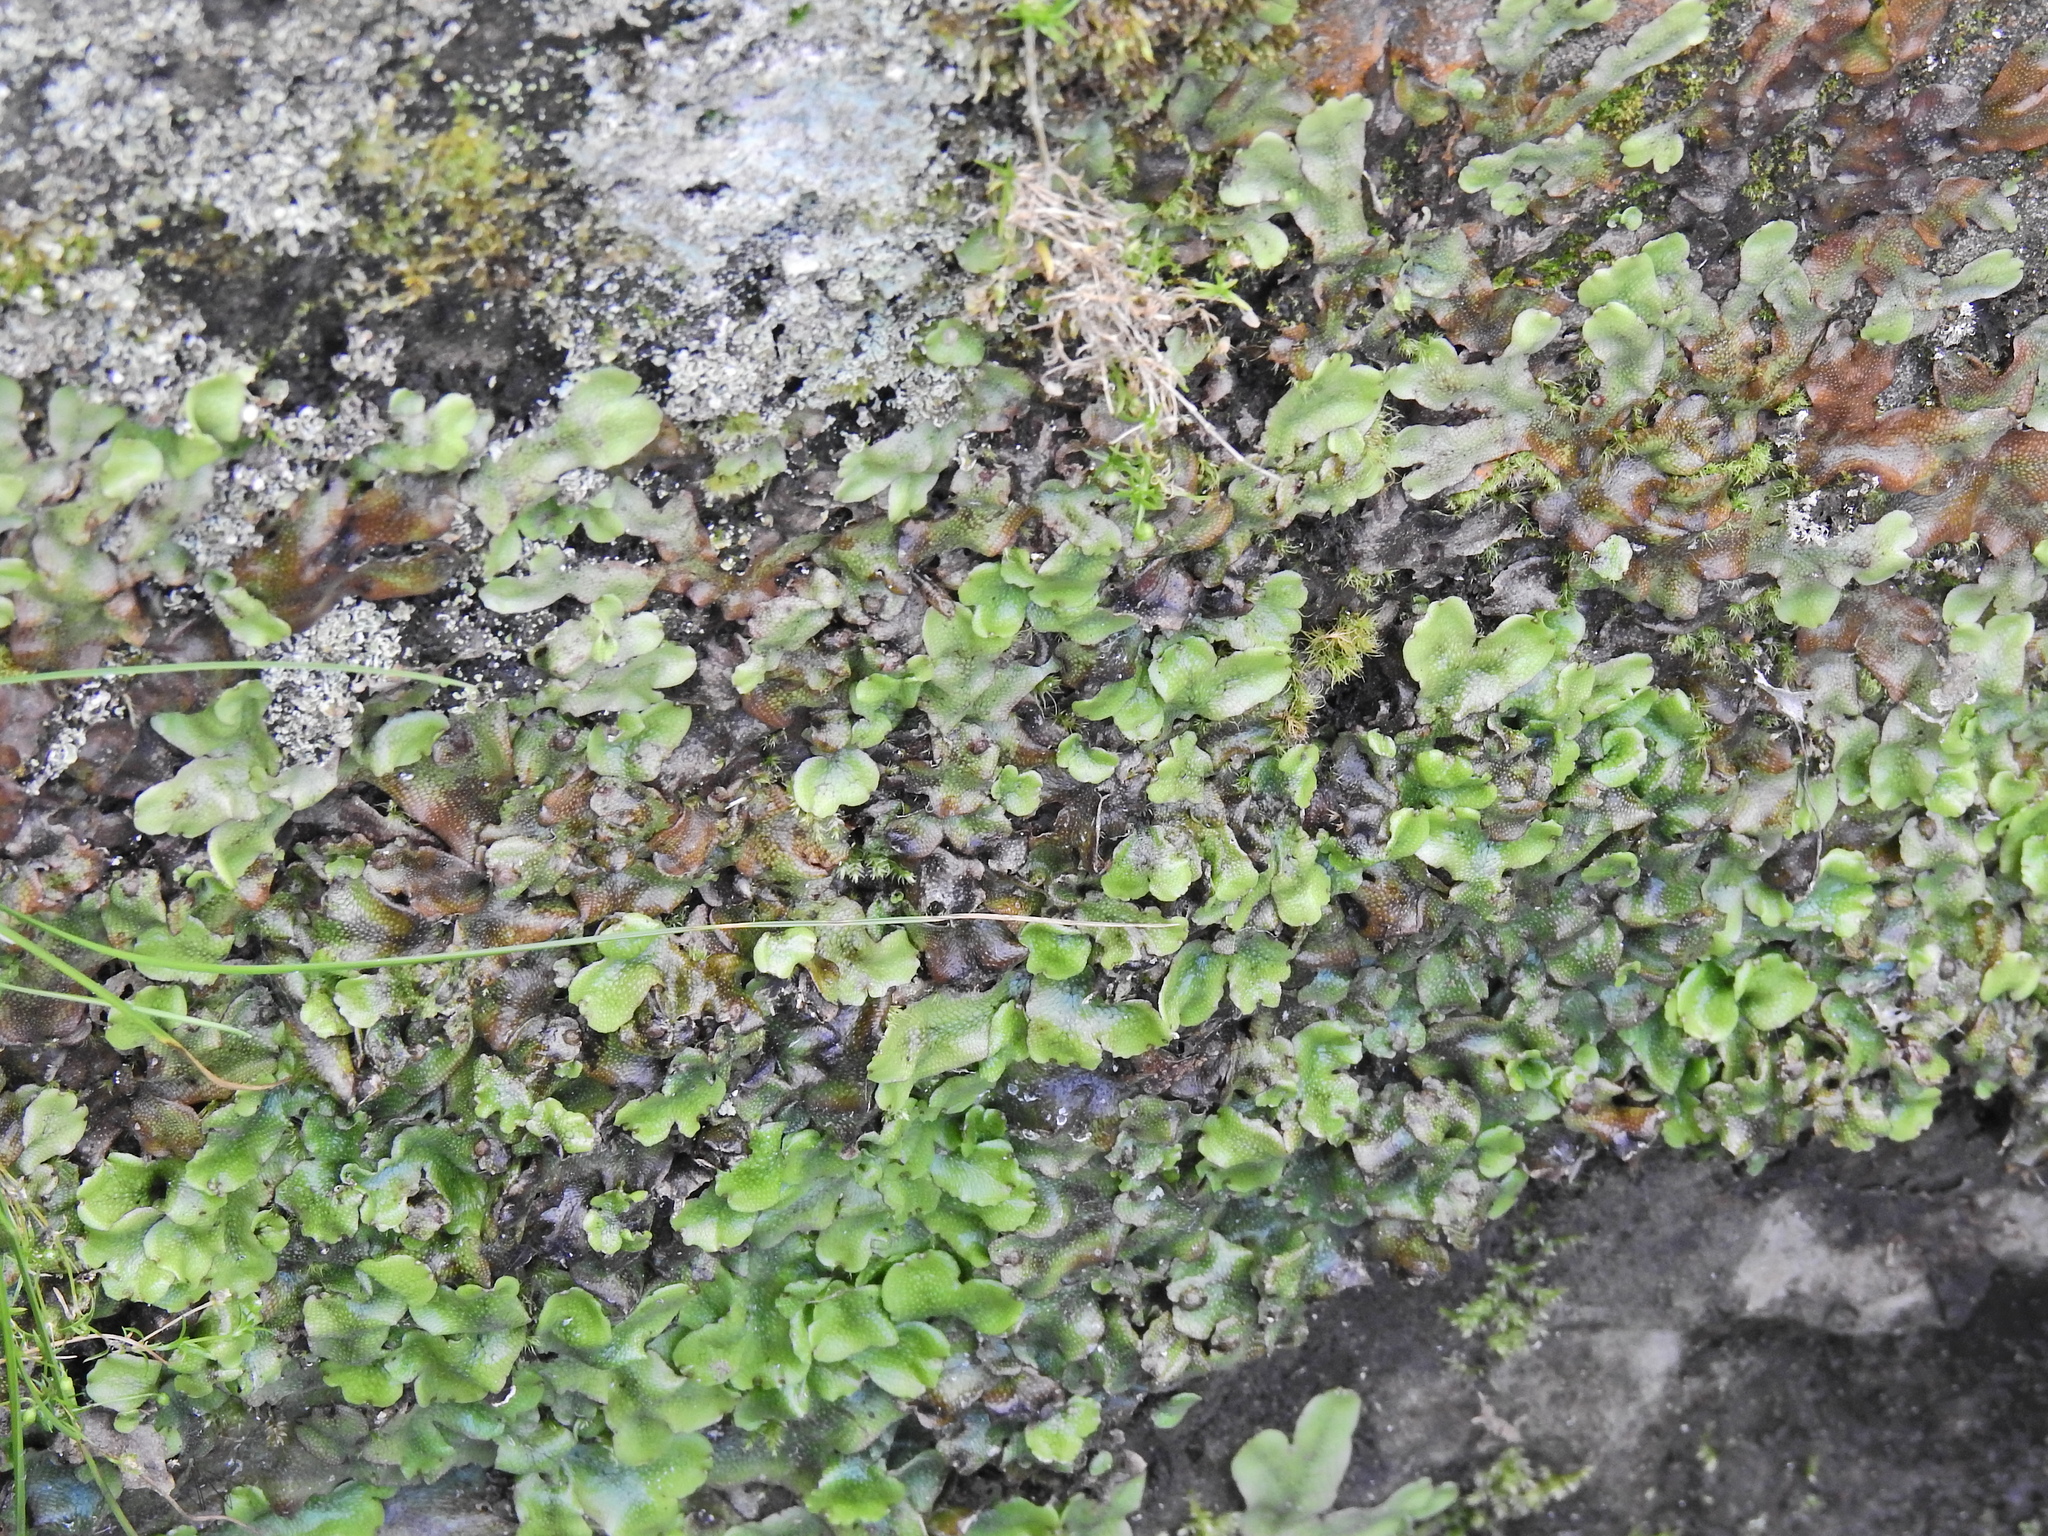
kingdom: Plantae
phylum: Marchantiophyta
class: Marchantiopsida
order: Marchantiales
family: Conocephalaceae
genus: Conocephalum
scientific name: Conocephalum conicum
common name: Great scented liverwort
